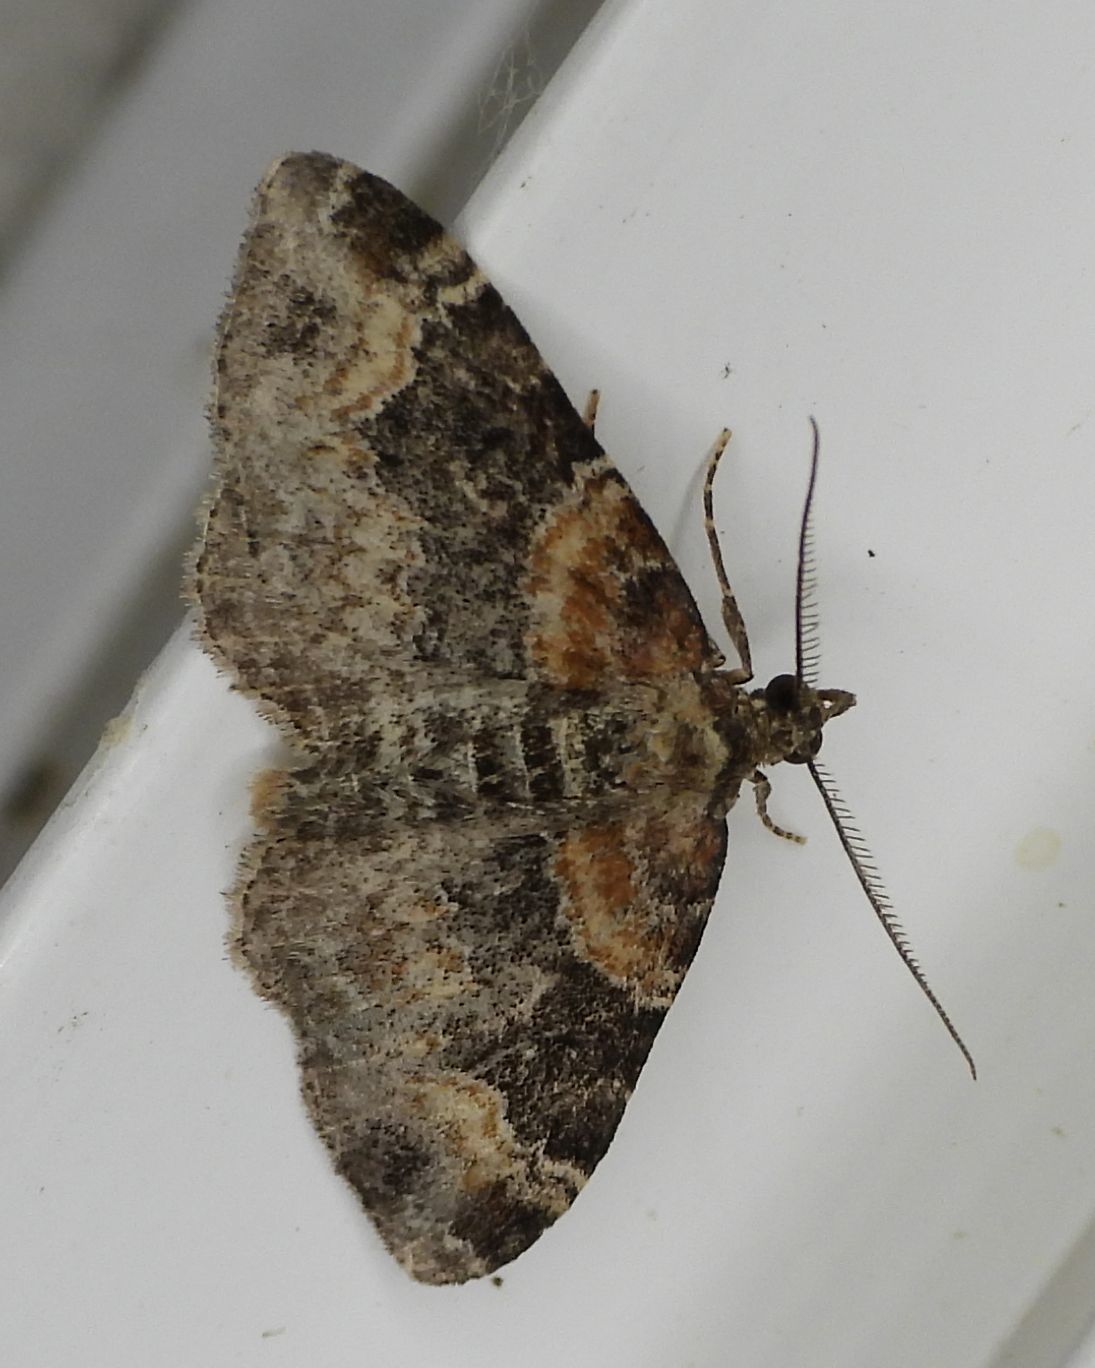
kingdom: Animalia
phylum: Arthropoda
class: Insecta
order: Lepidoptera
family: Geometridae
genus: Xanthorhoe
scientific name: Xanthorhoe ferrugata
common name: Dark-barred twin-spot carpet
